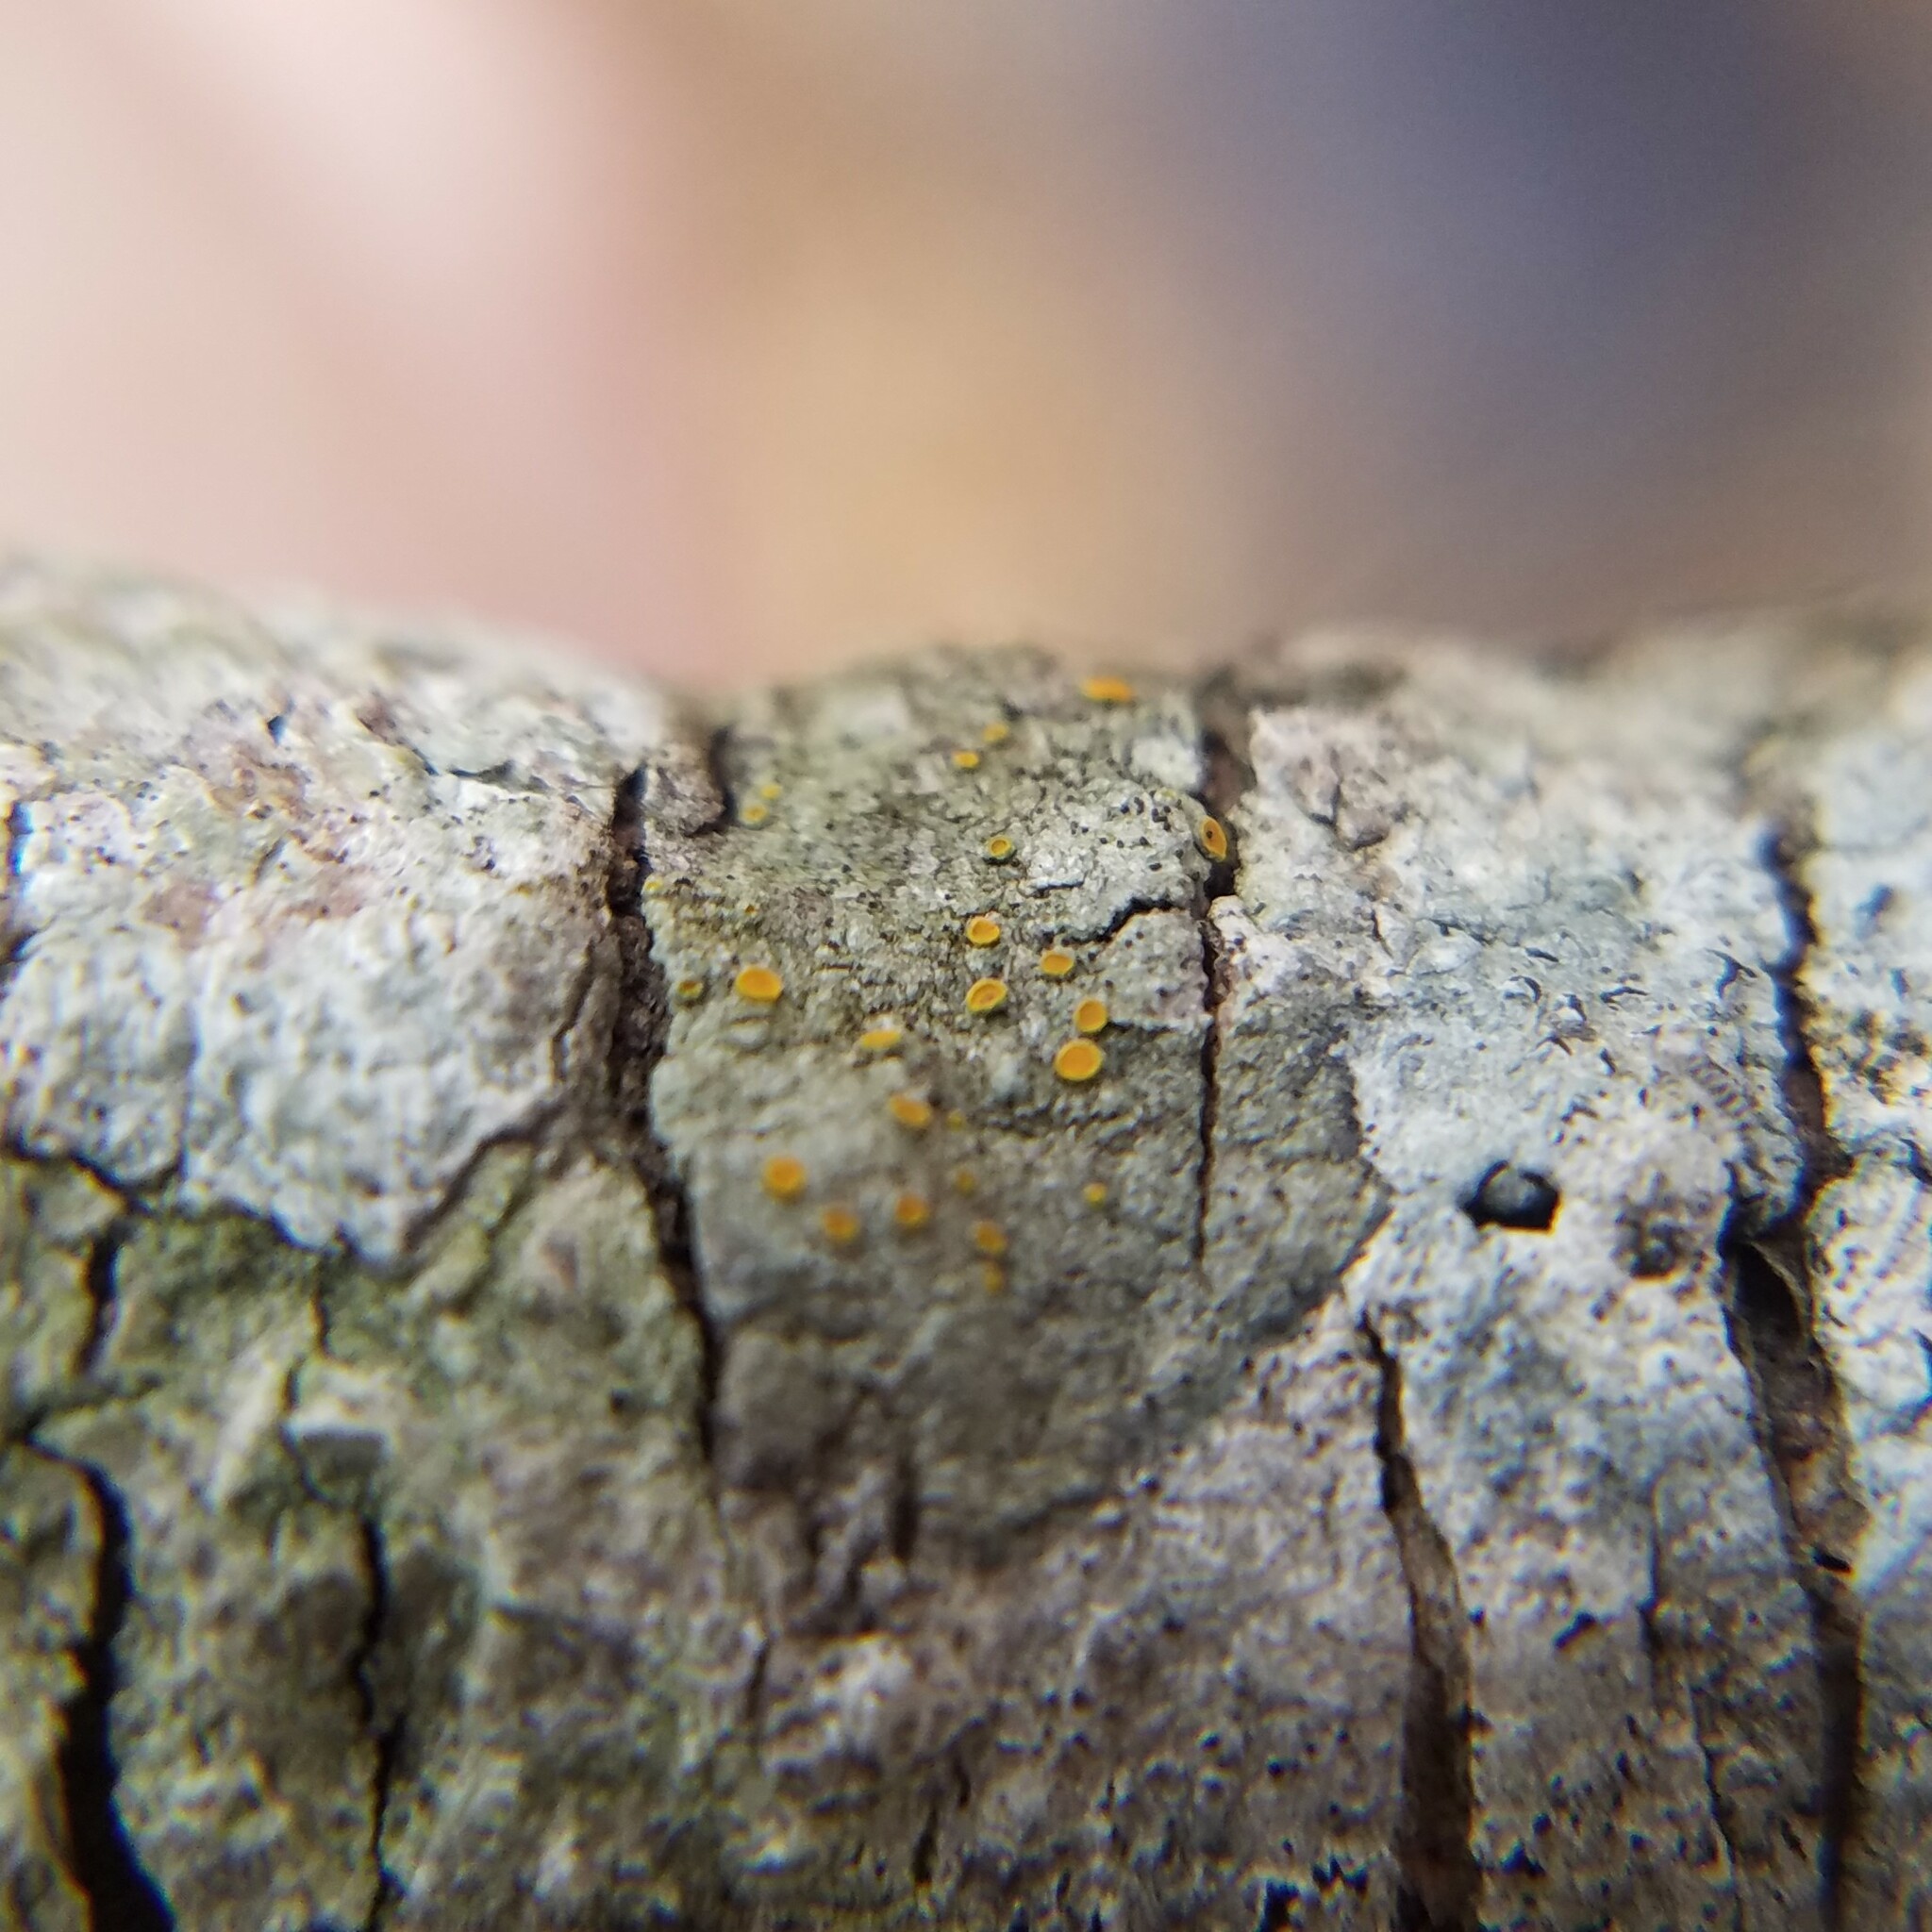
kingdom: Fungi
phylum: Ascomycota
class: Lecanoromycetes
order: Teloschistales
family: Teloschistaceae
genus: Caloplaca
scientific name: Caloplaca cerina
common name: Gray-rimmed firedot lichen
